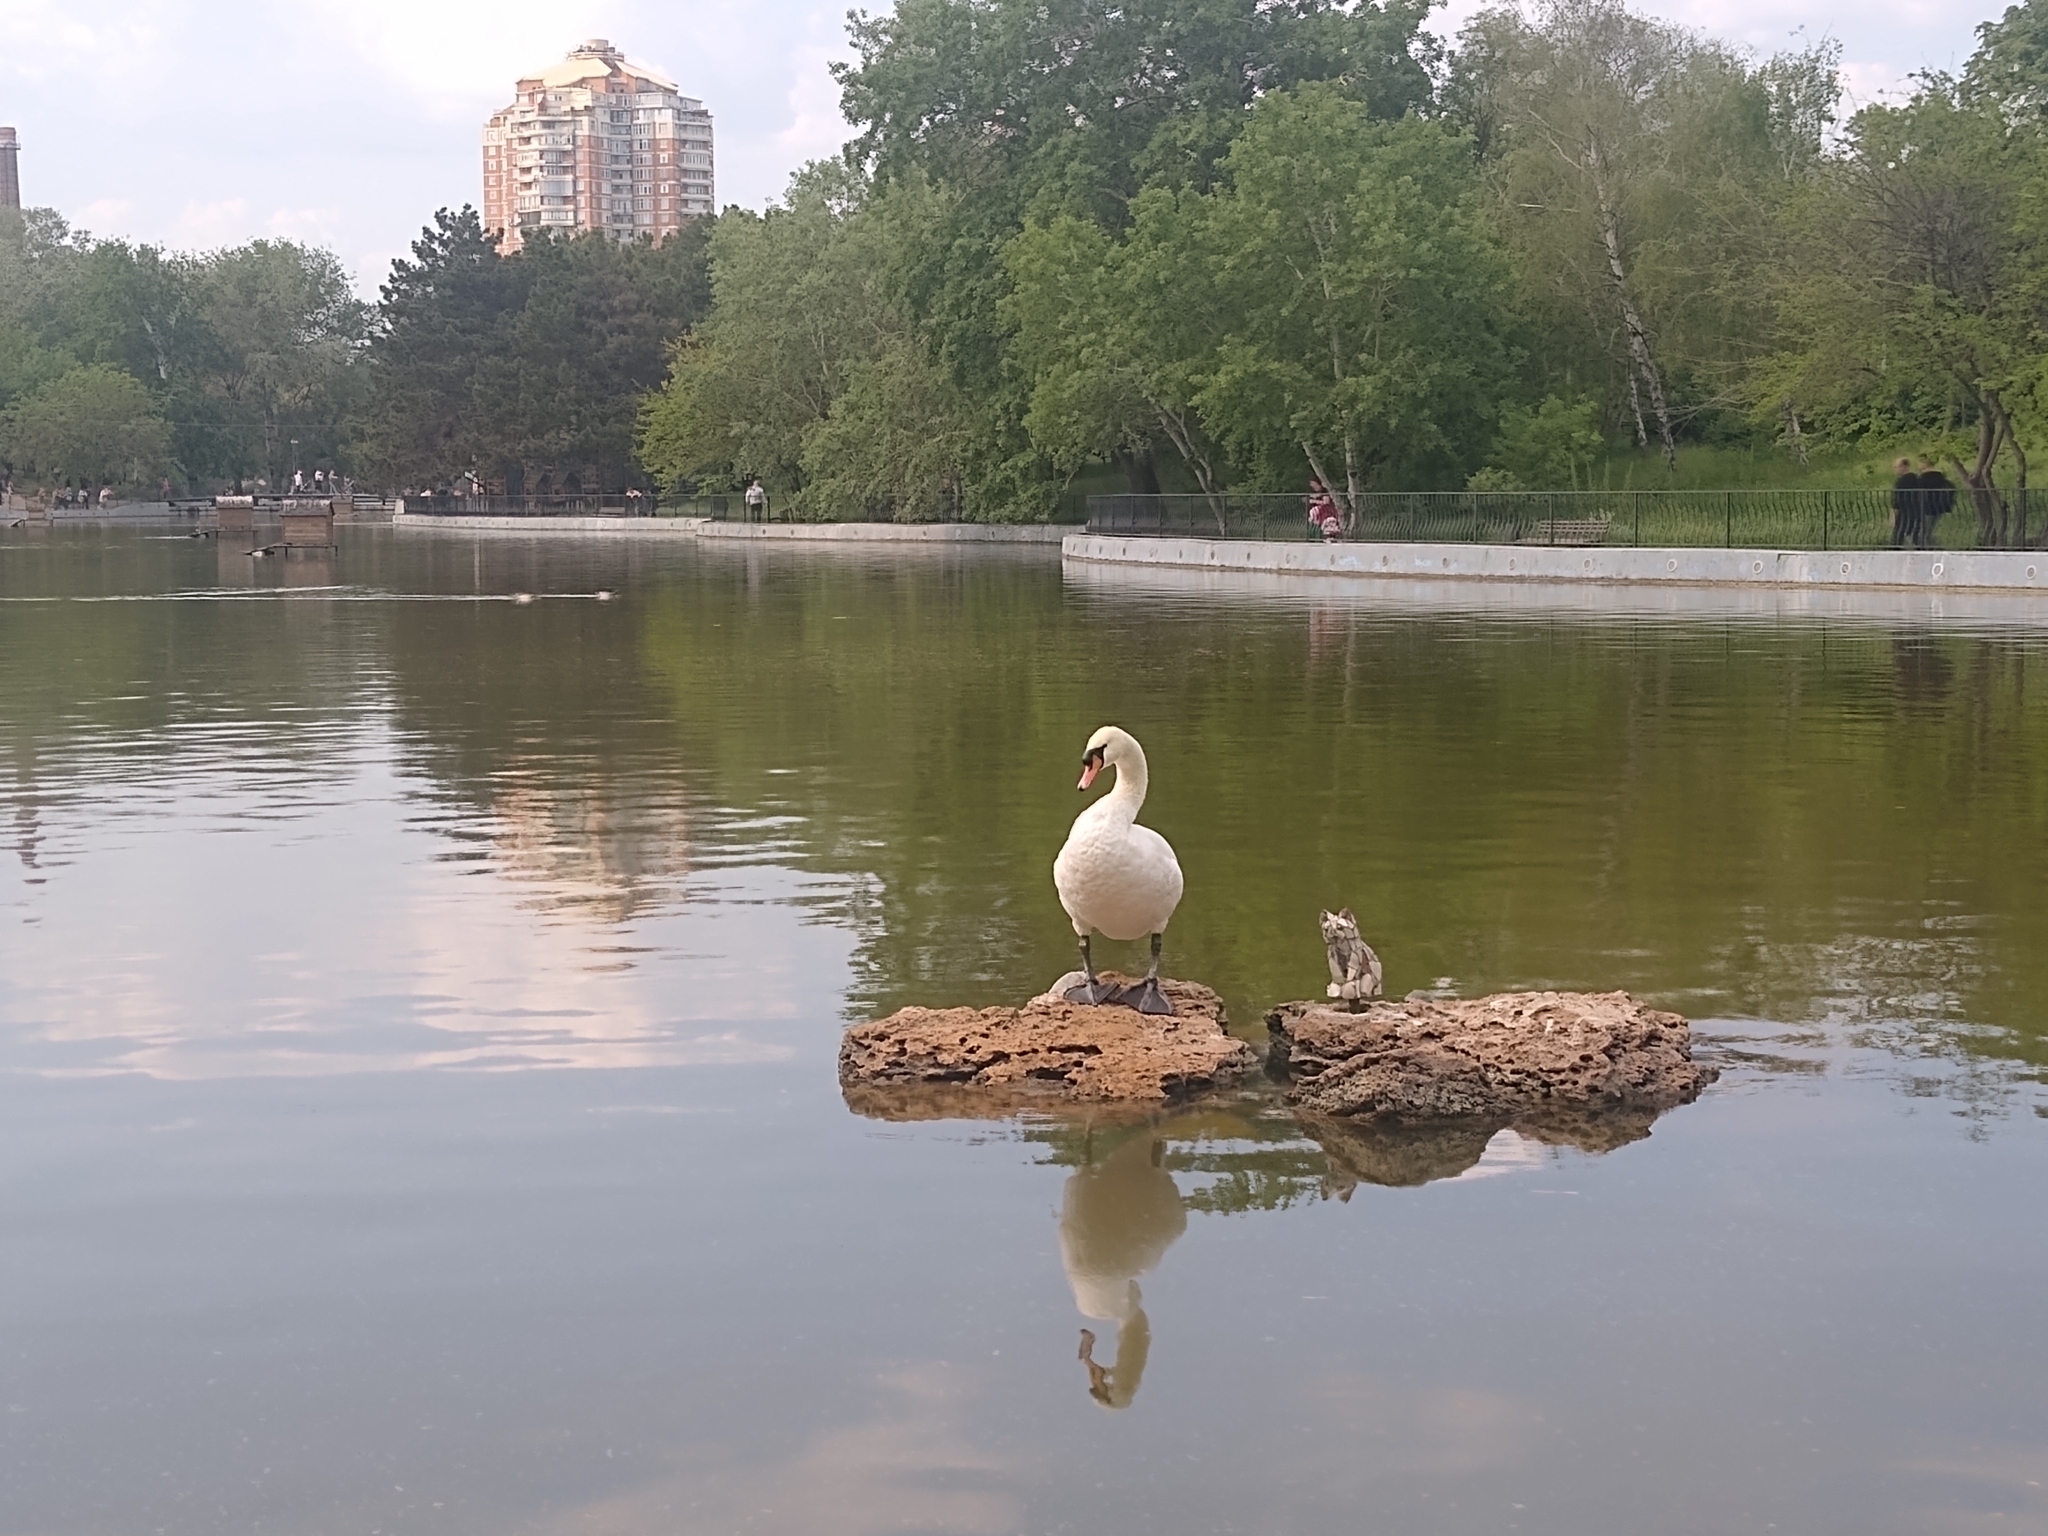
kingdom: Animalia
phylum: Chordata
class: Aves
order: Anseriformes
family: Anatidae
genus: Cygnus
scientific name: Cygnus olor
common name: Mute swan
